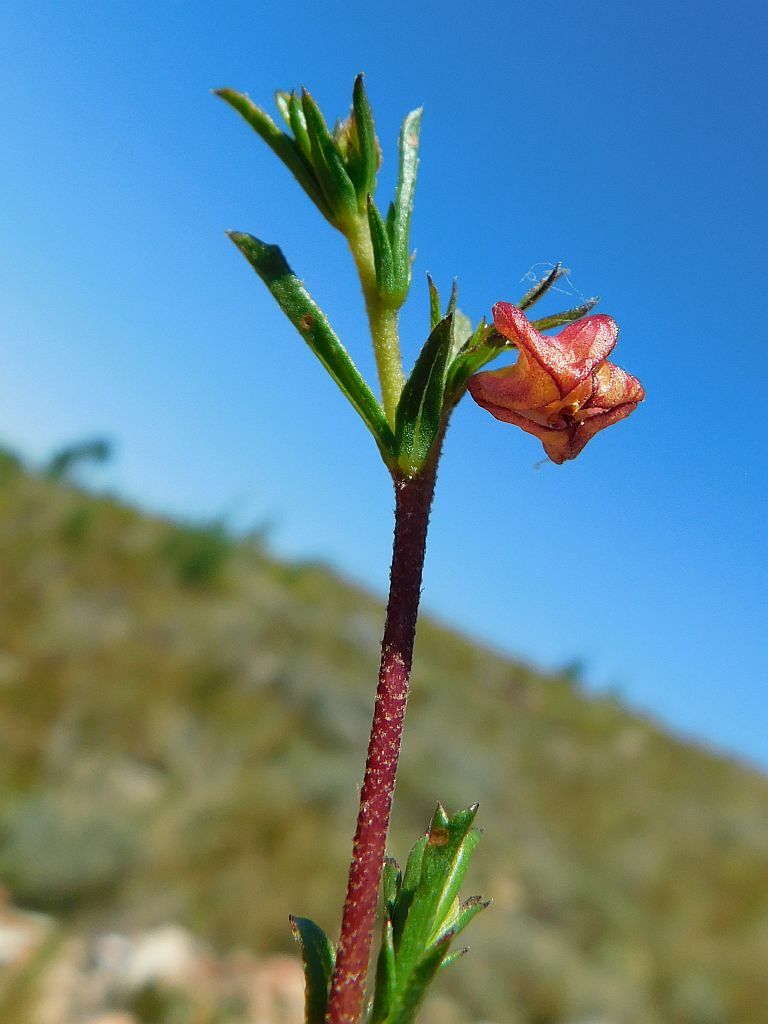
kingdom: Plantae
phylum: Tracheophyta
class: Magnoliopsida
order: Malvales
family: Malvaceae
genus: Hermannia
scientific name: Hermannia angularis
